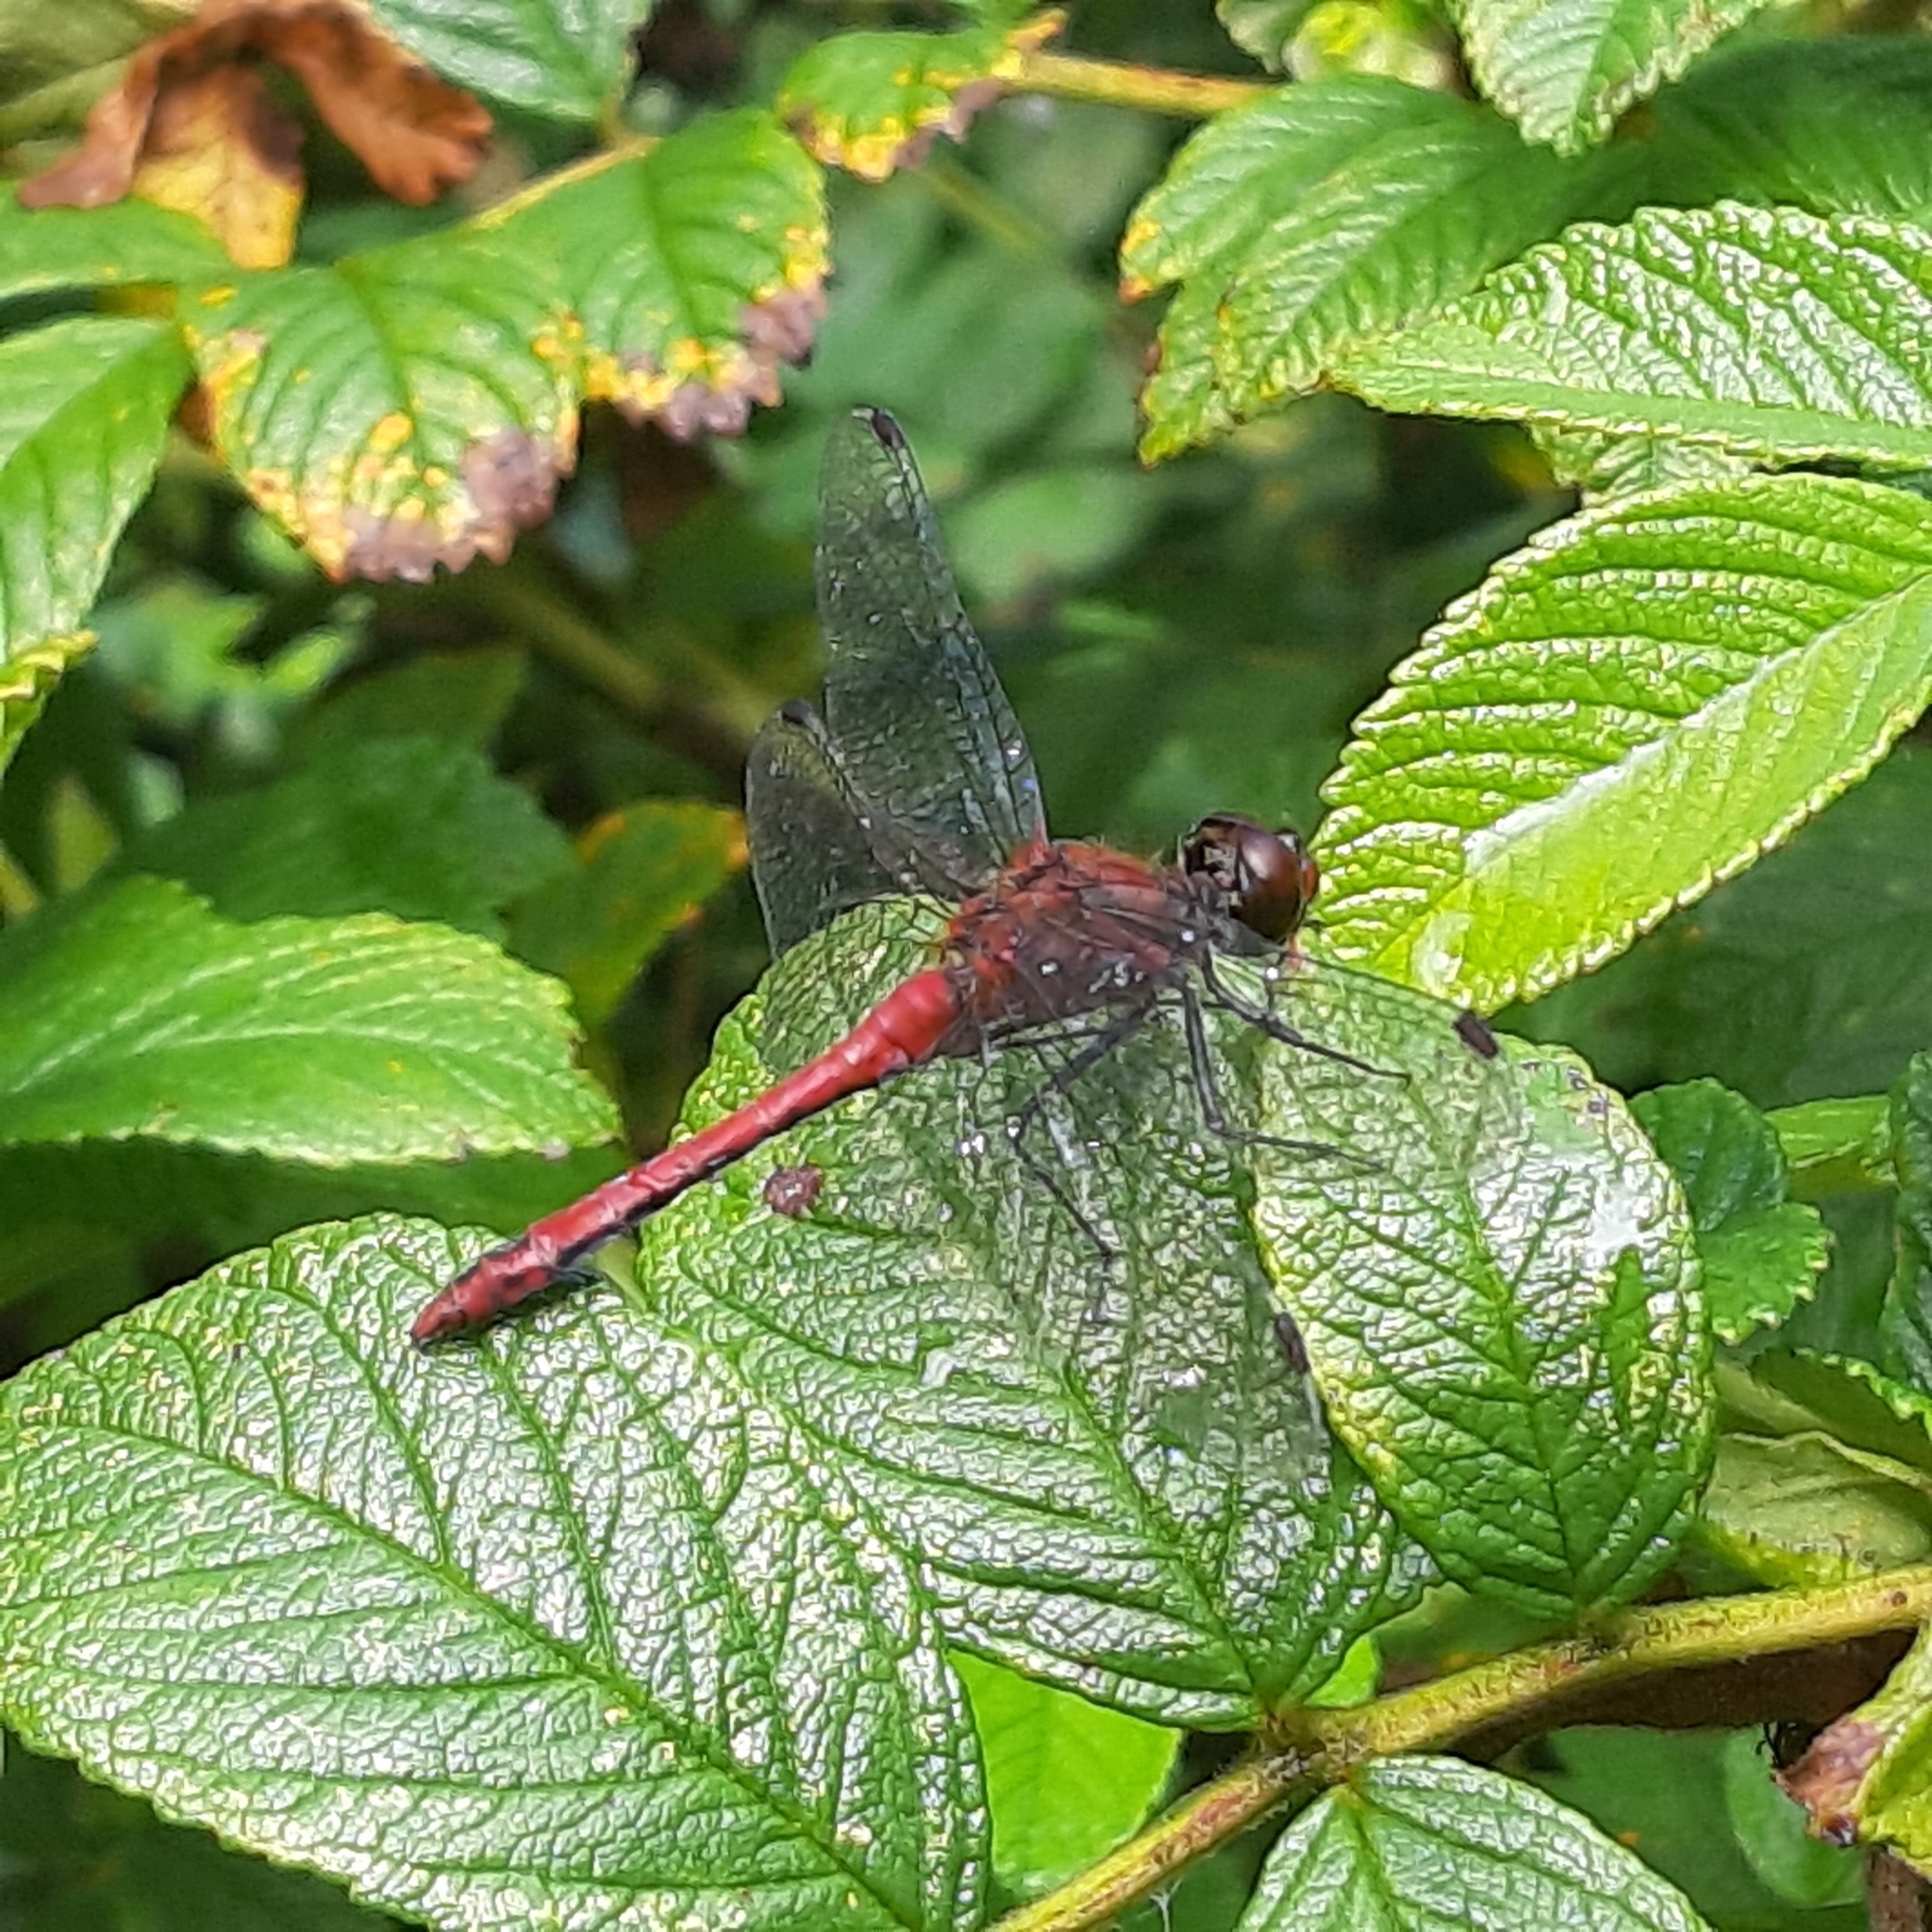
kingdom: Animalia
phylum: Arthropoda
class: Insecta
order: Odonata
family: Libellulidae
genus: Sympetrum
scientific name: Sympetrum sanguineum
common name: Ruddy darter
